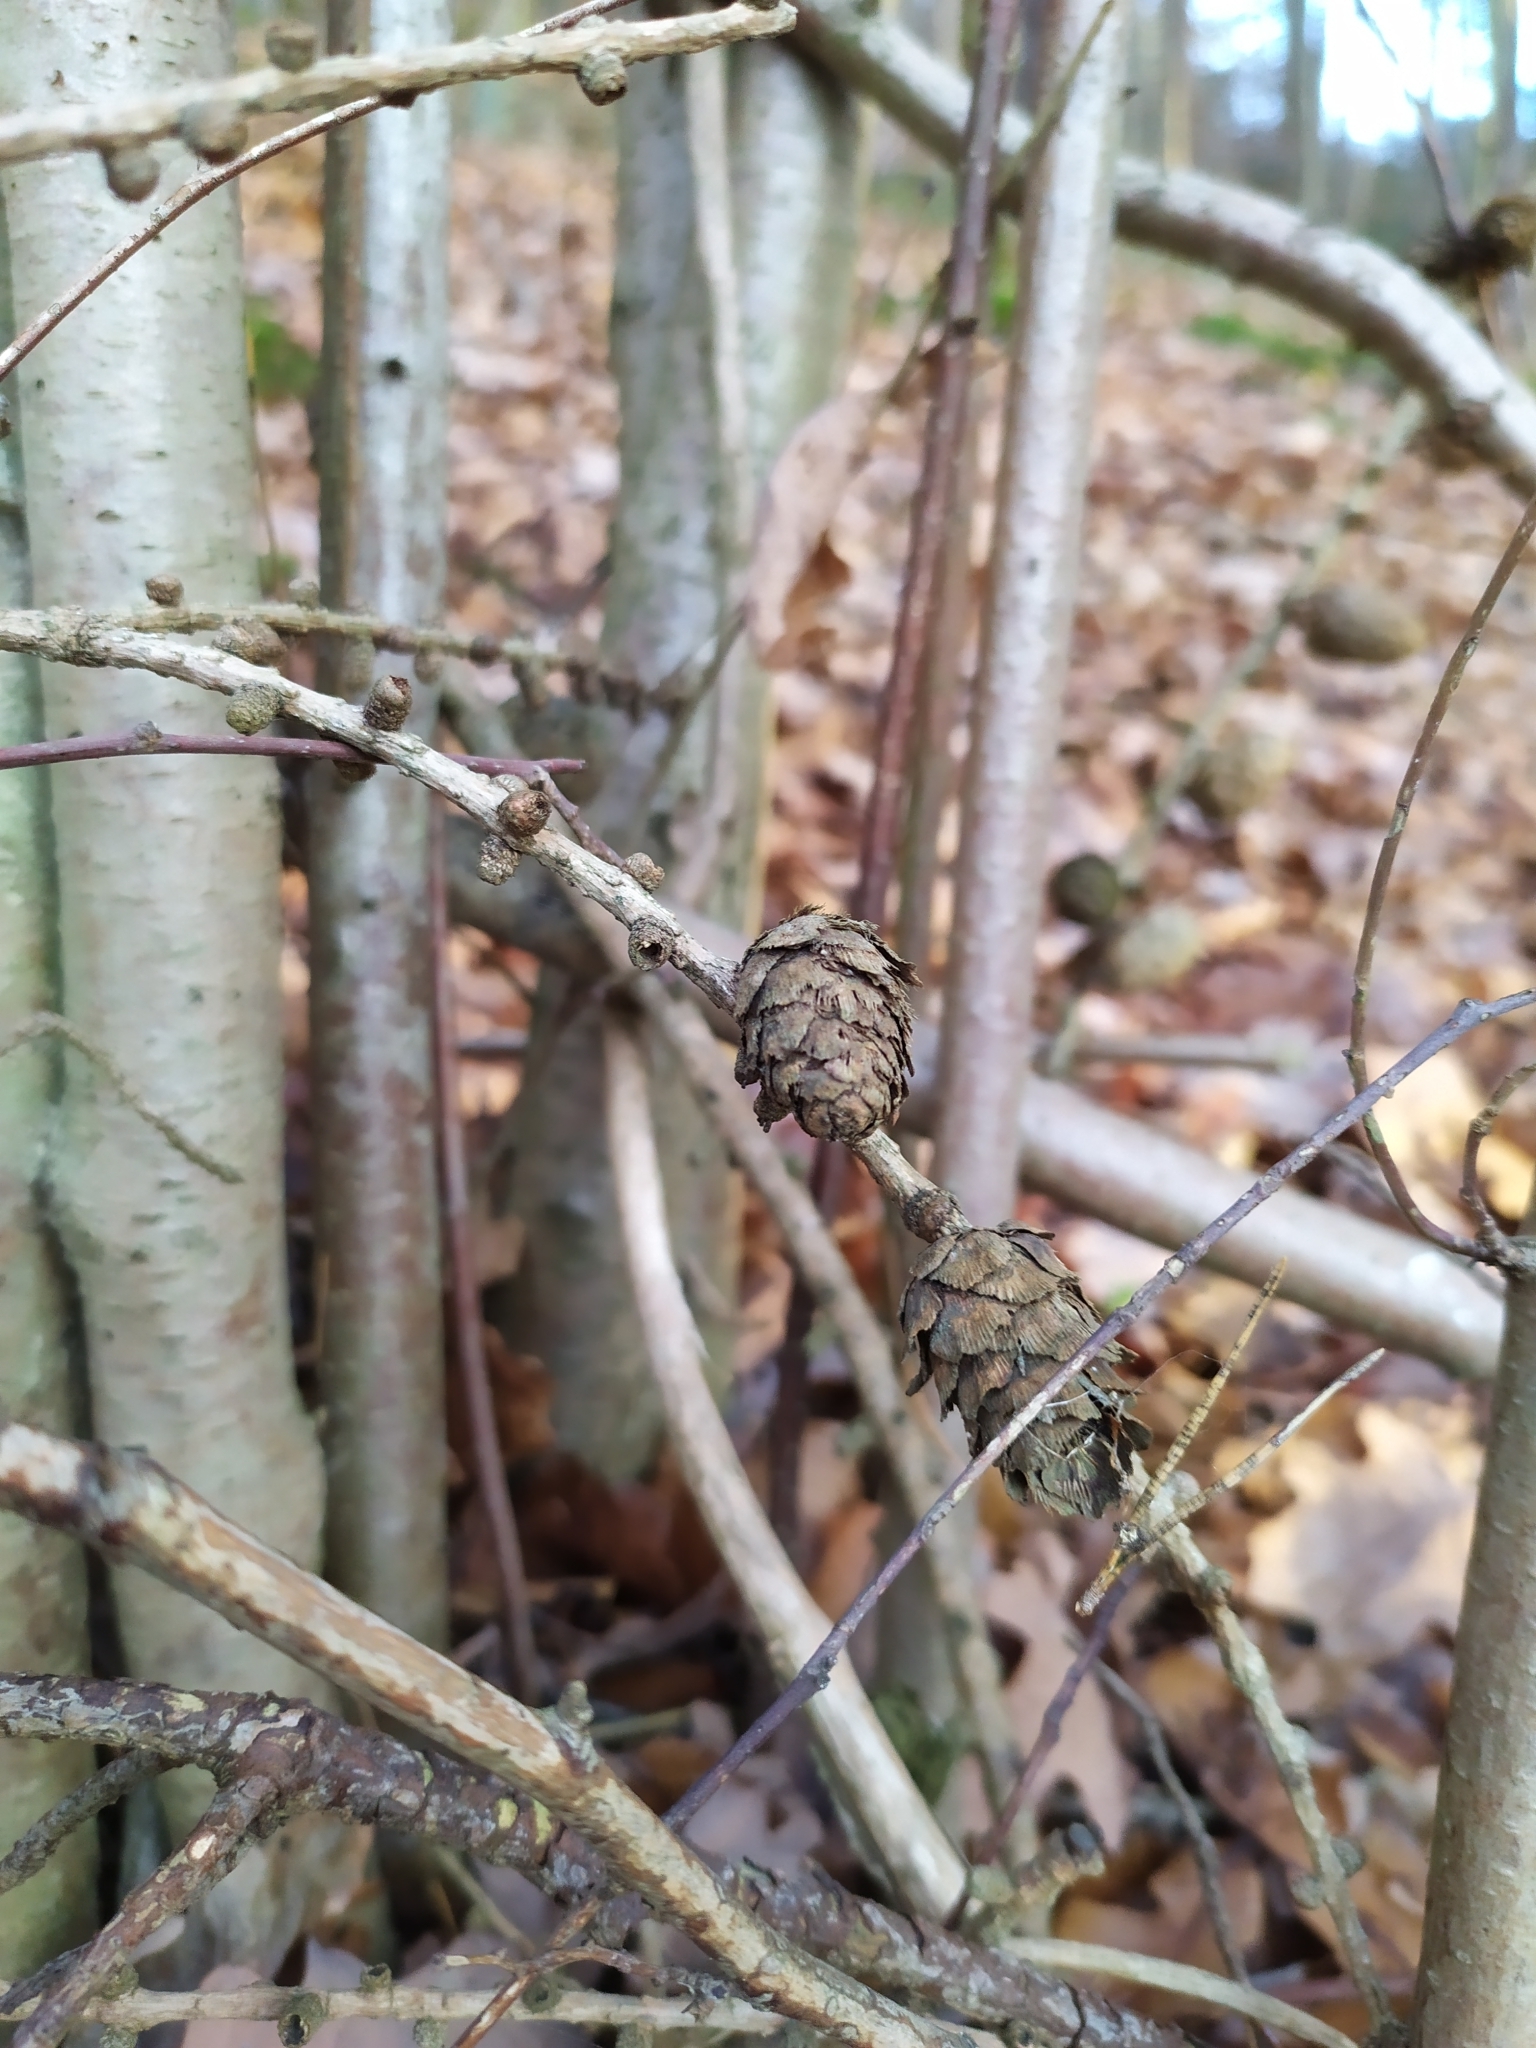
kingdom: Plantae
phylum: Tracheophyta
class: Pinopsida
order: Pinales
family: Pinaceae
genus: Larix
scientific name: Larix decidua
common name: European larch
